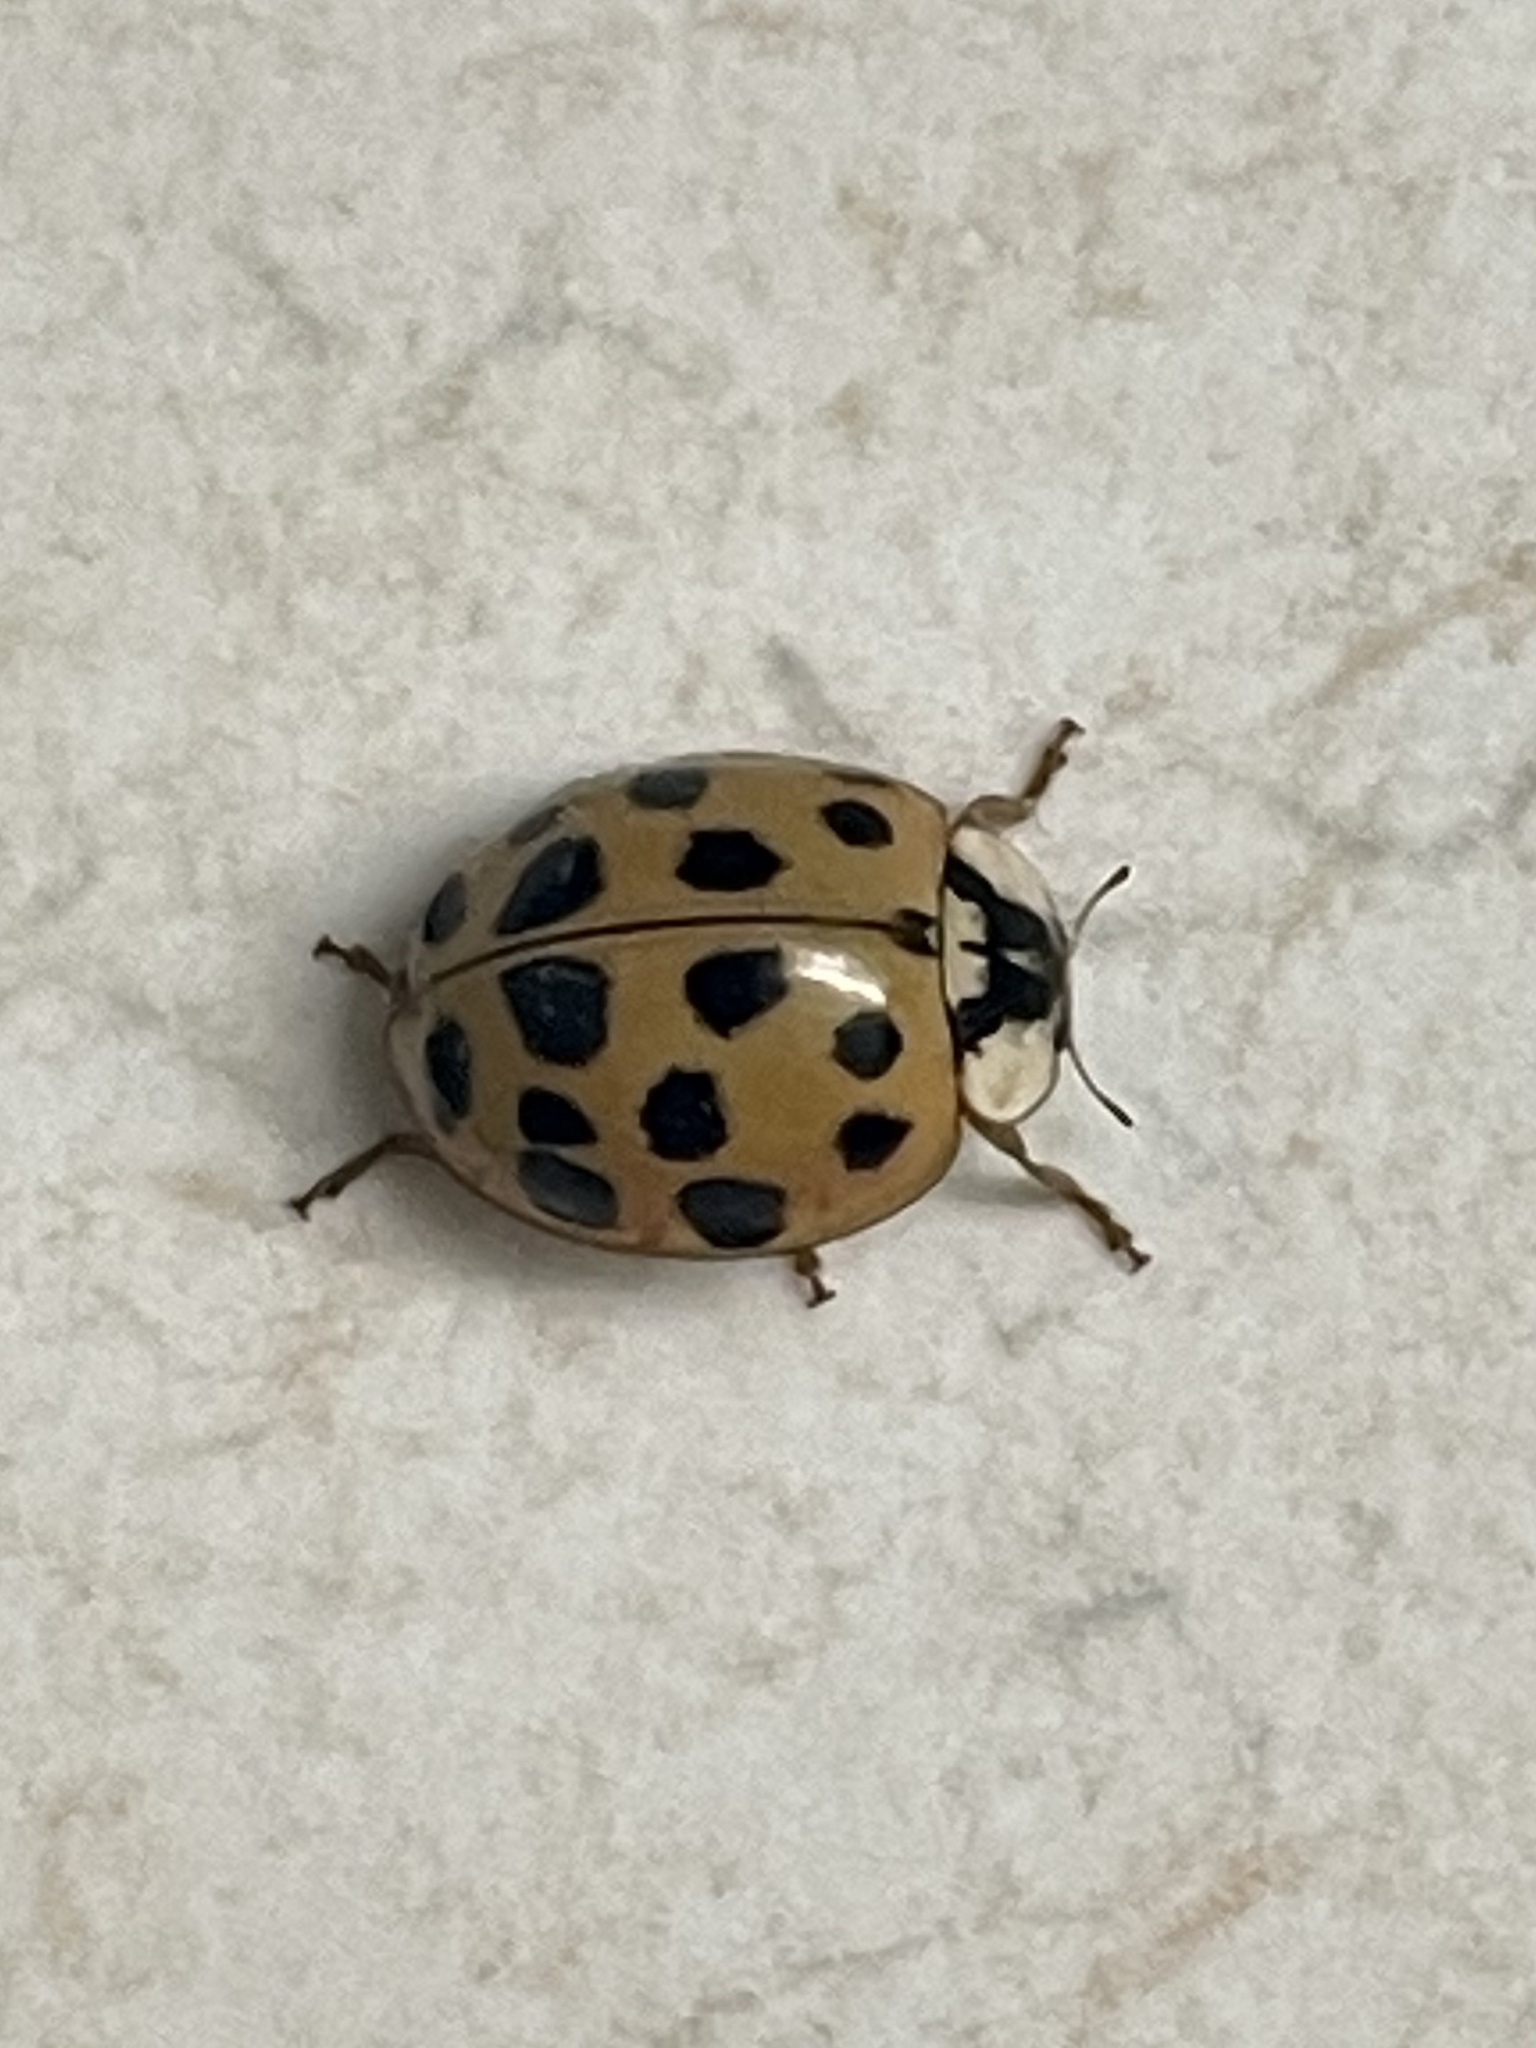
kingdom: Animalia
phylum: Arthropoda
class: Insecta
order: Coleoptera
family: Coccinellidae
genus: Harmonia
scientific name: Harmonia axyridis
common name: Harlequin ladybird
